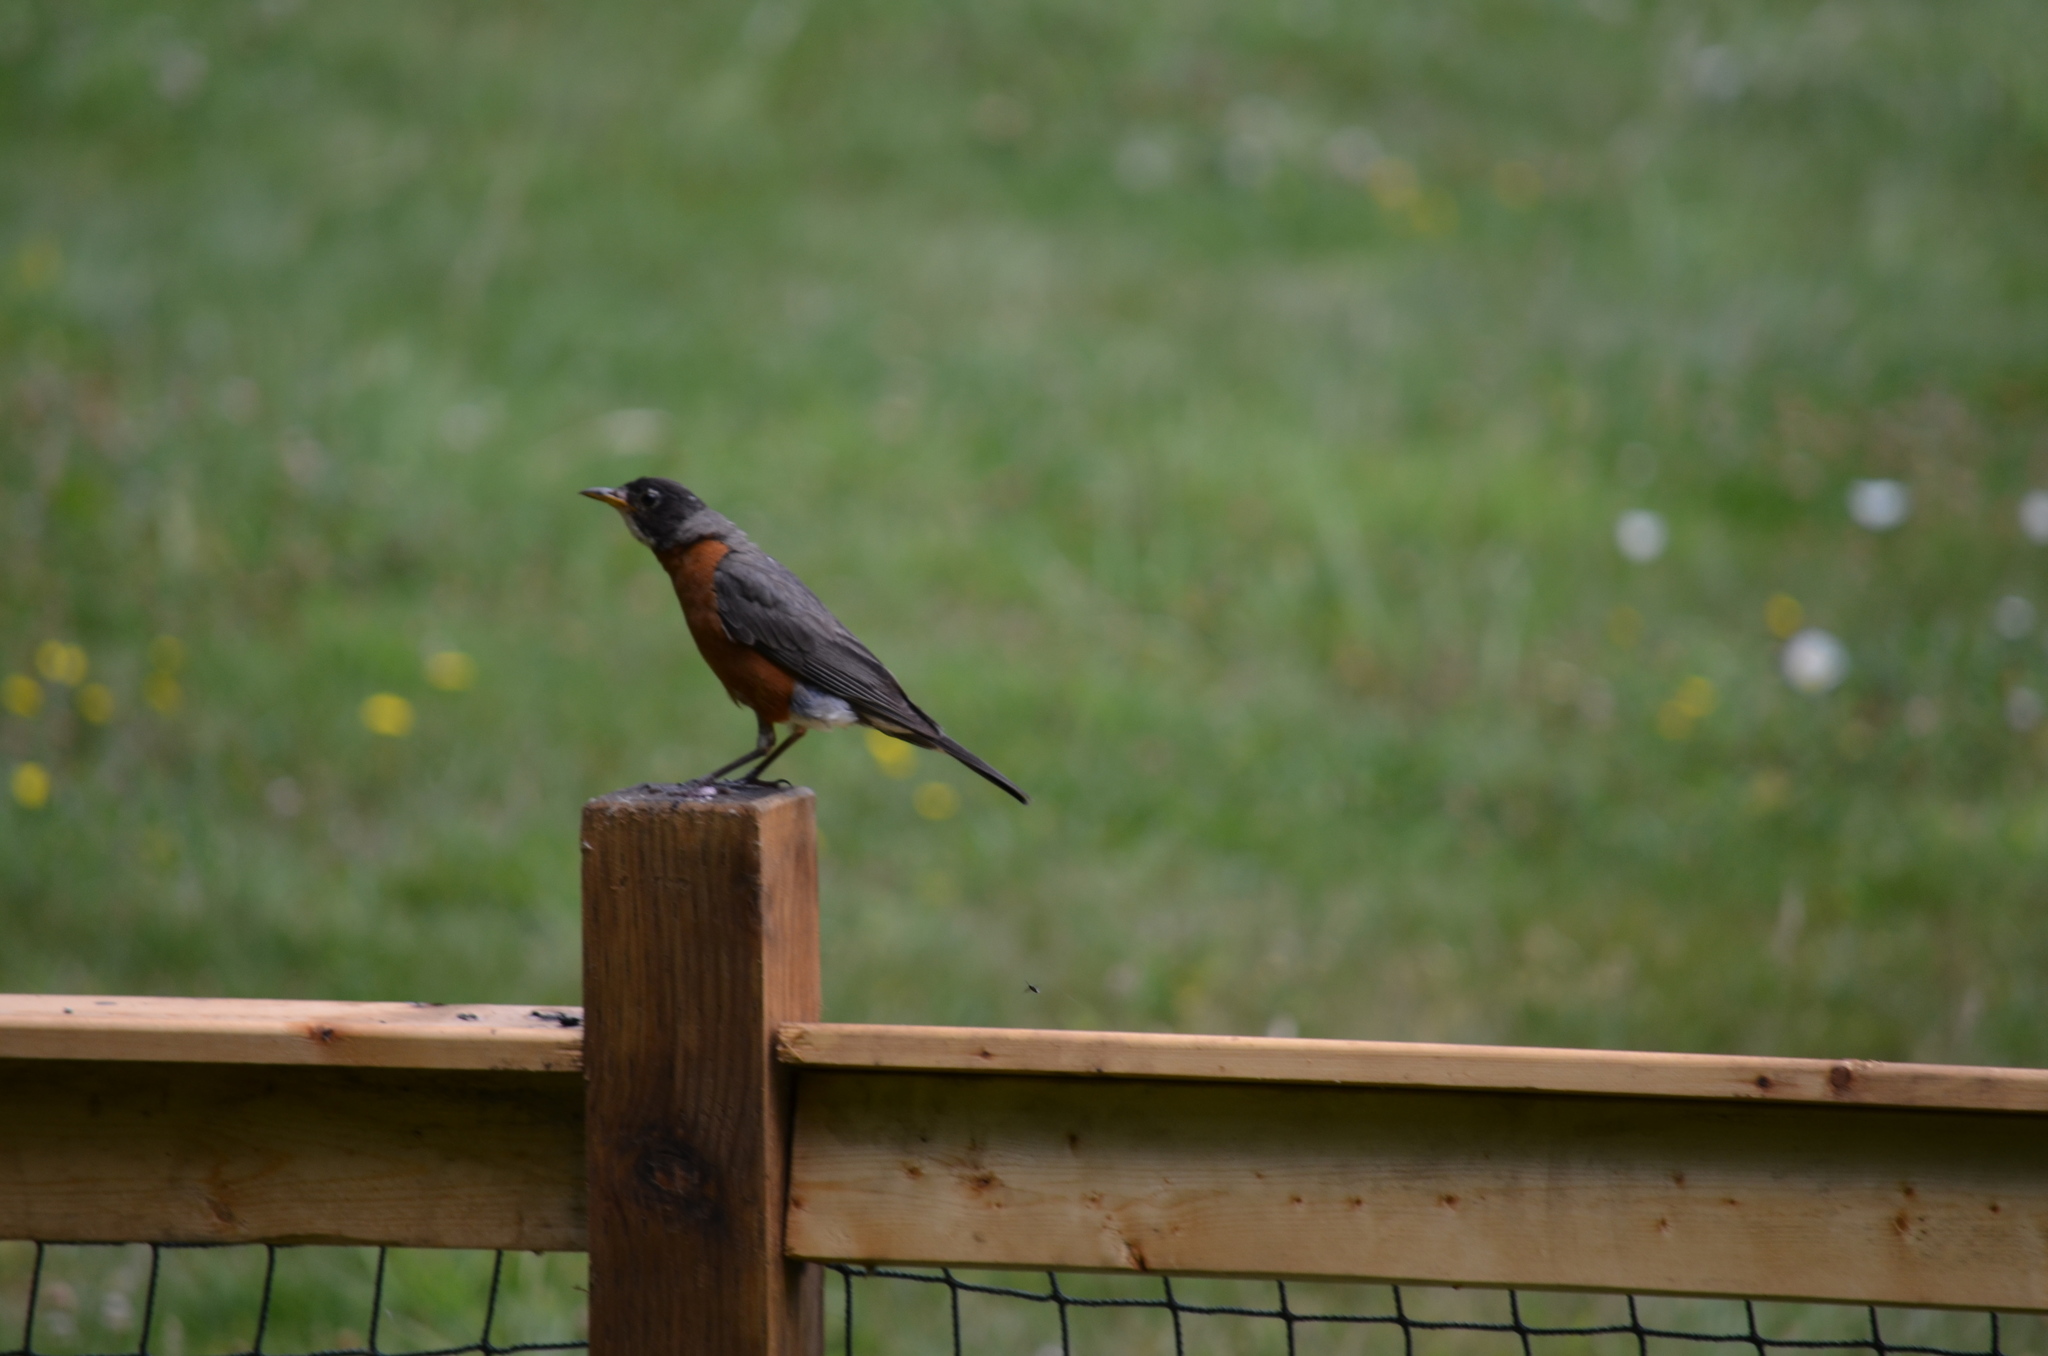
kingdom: Animalia
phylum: Chordata
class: Aves
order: Passeriformes
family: Turdidae
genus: Turdus
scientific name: Turdus migratorius
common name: American robin
